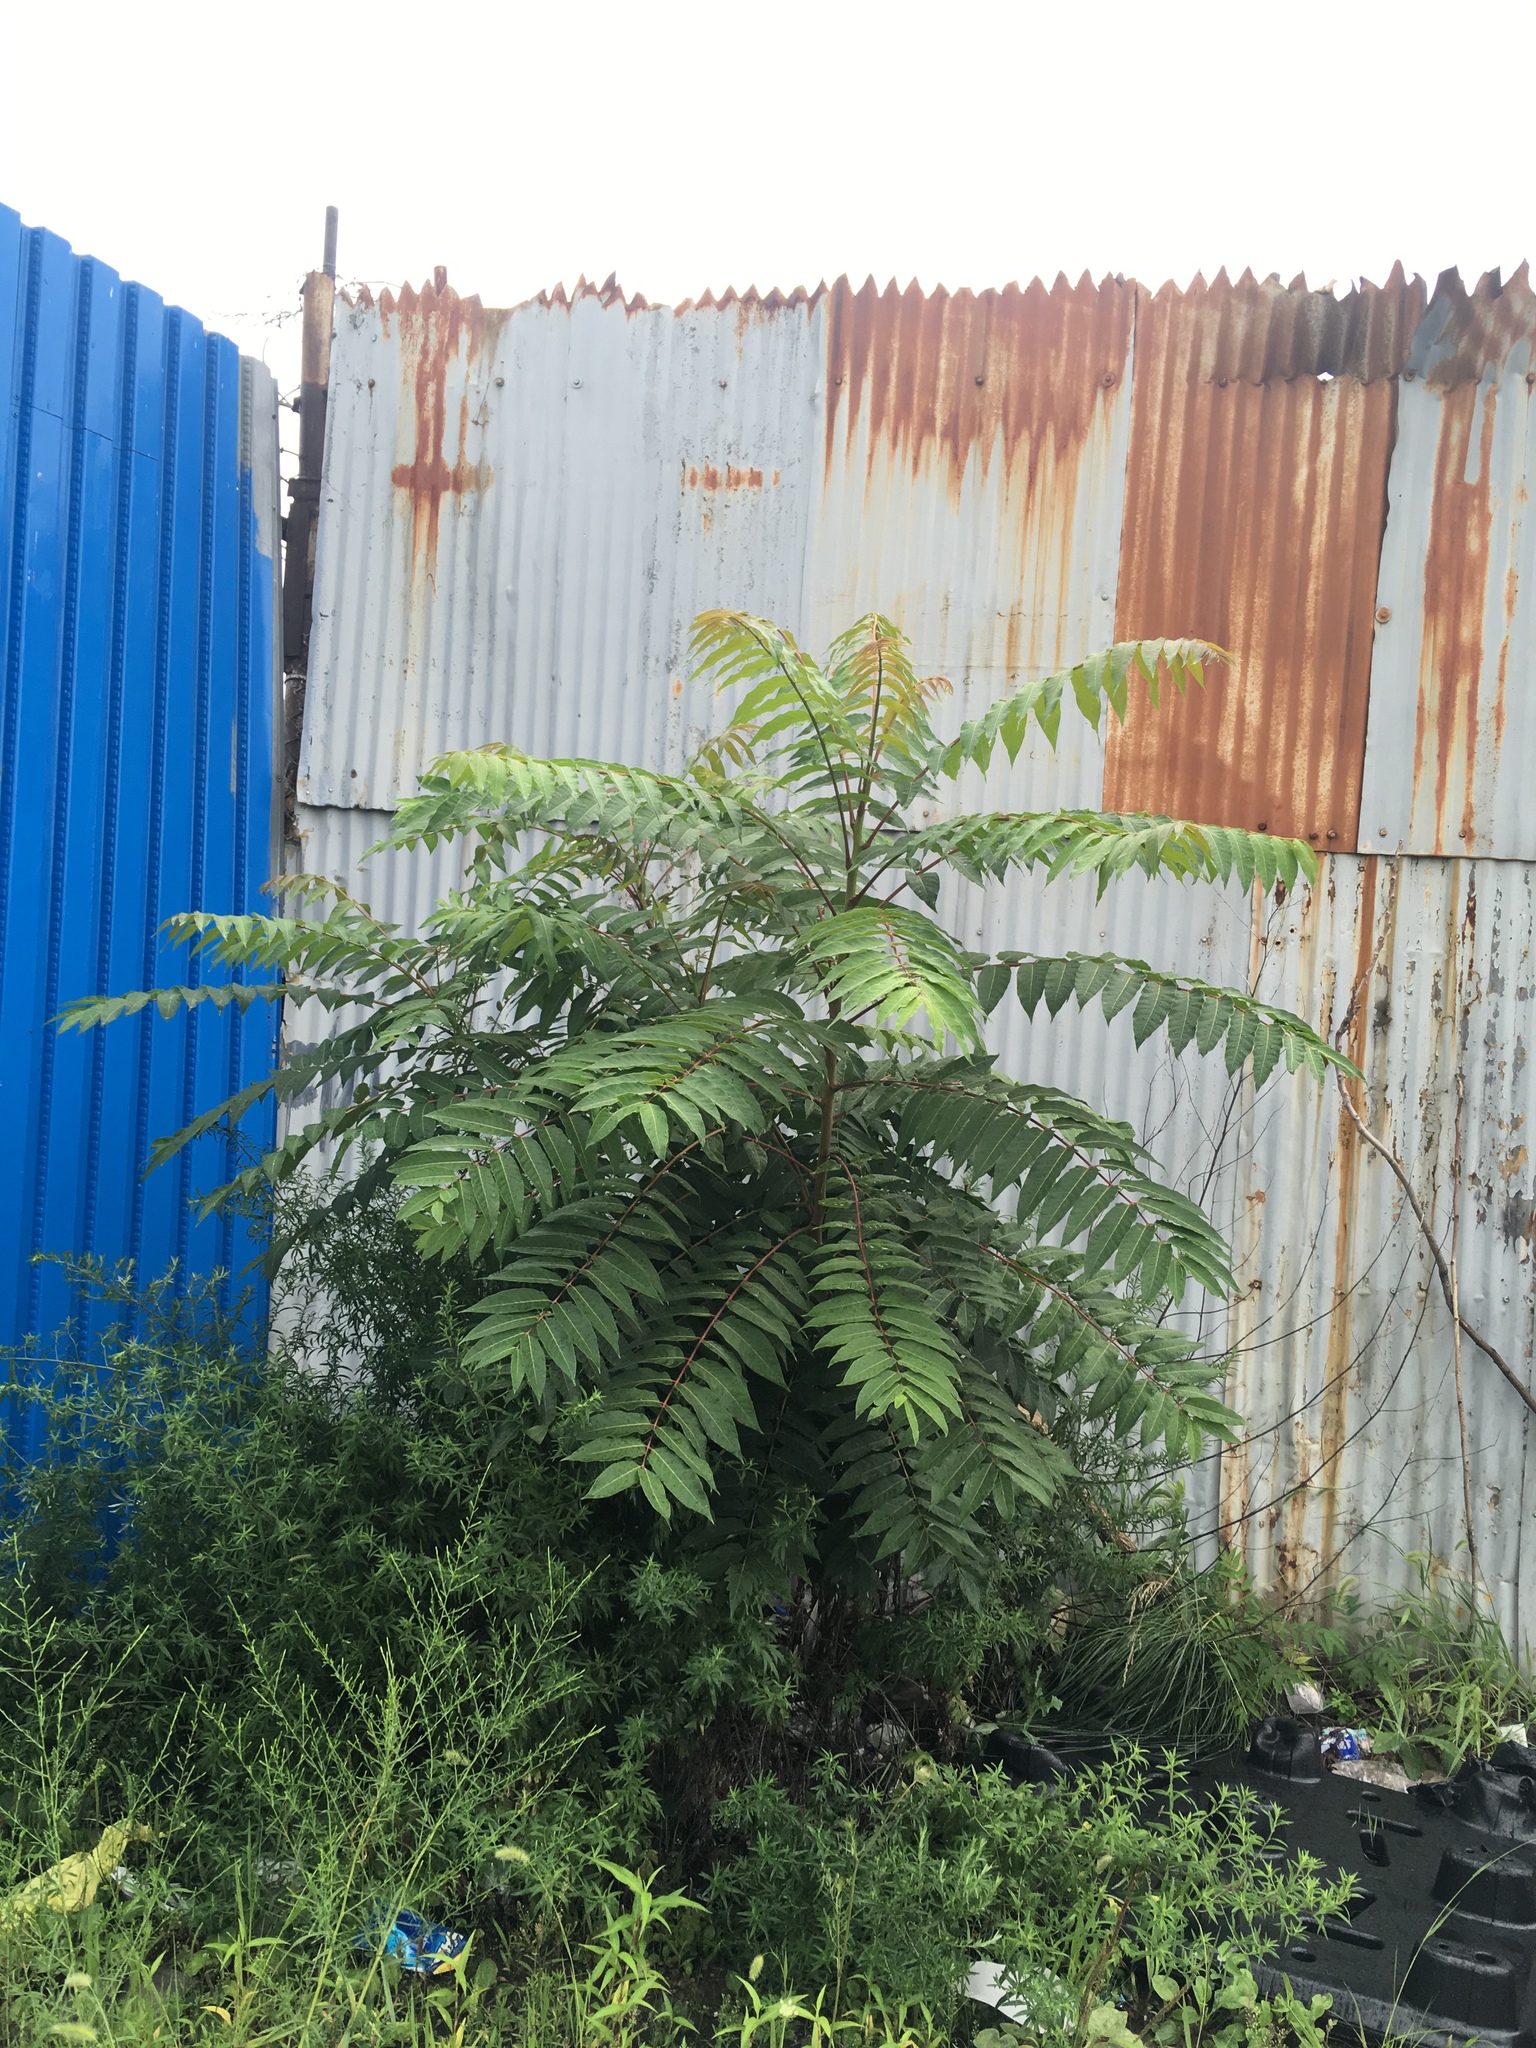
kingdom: Plantae
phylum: Tracheophyta
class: Magnoliopsida
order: Sapindales
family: Simaroubaceae
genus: Ailanthus
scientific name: Ailanthus altissima
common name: Tree-of-heaven
